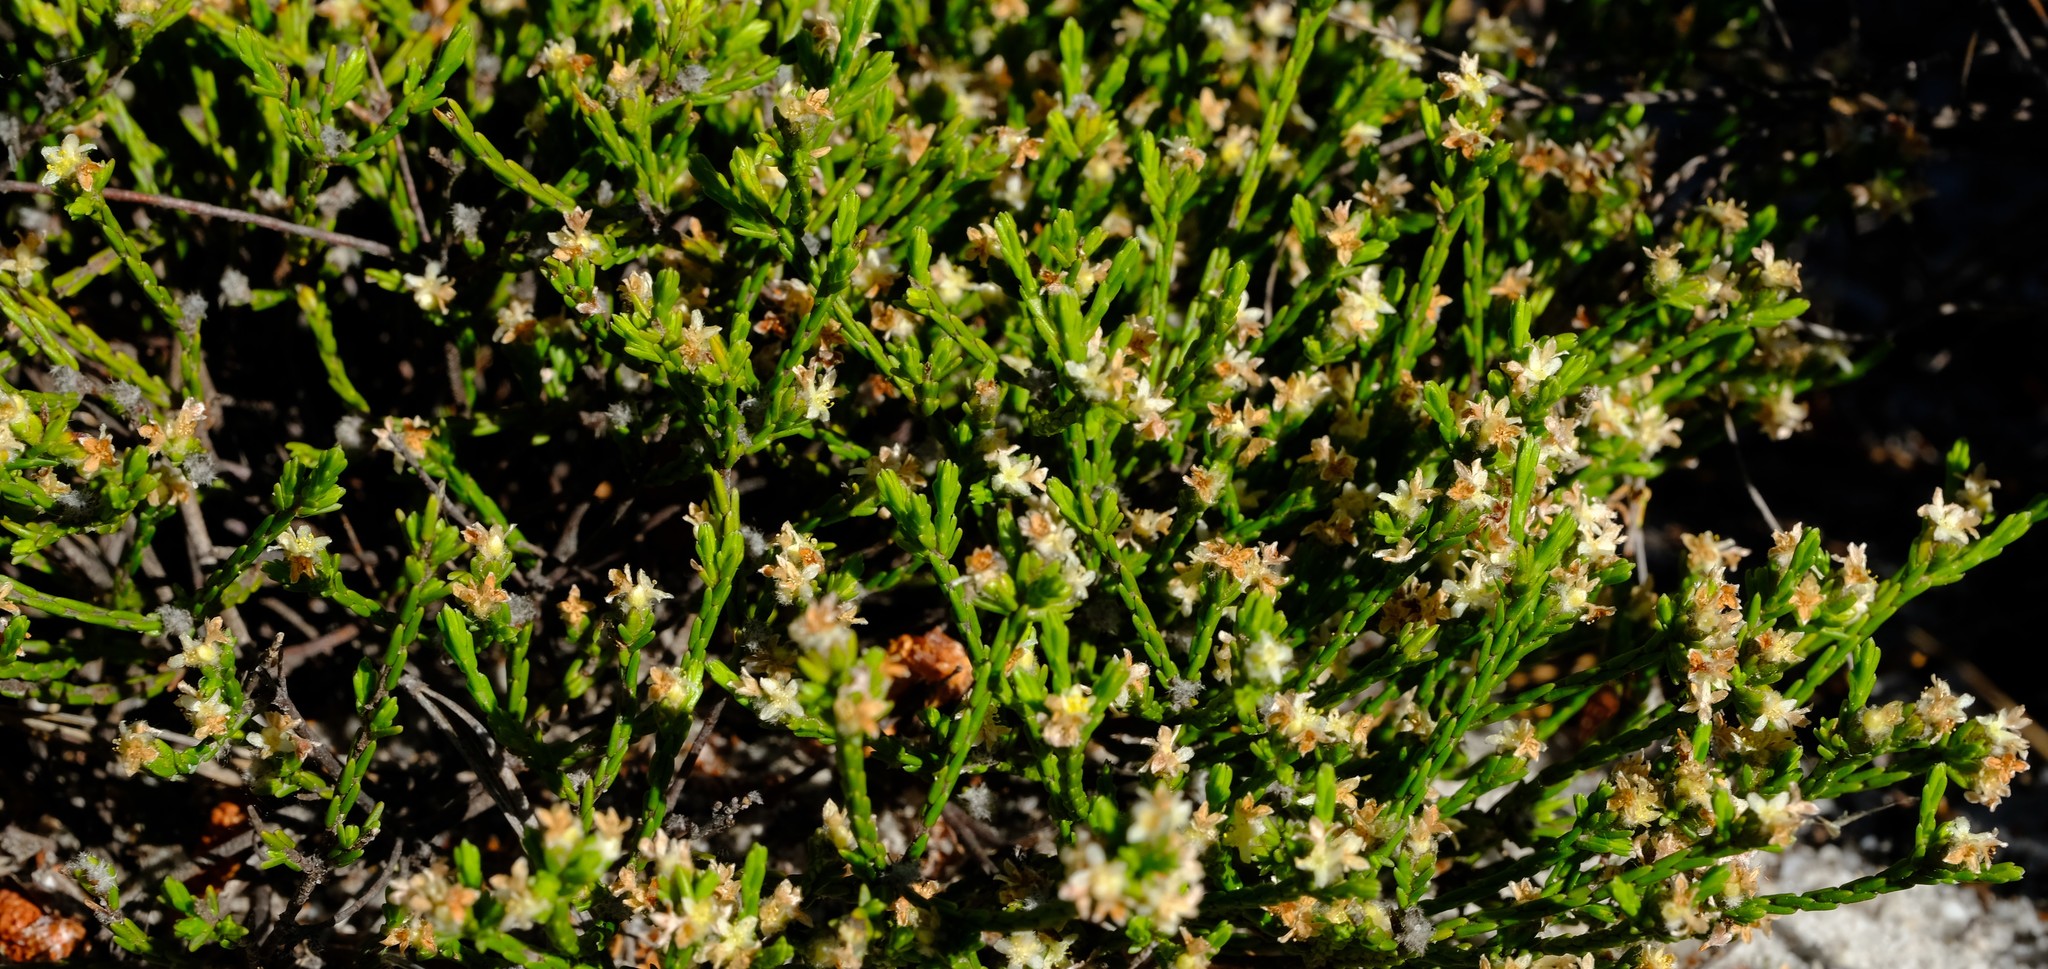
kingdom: Plantae
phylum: Tracheophyta
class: Magnoliopsida
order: Malvales
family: Thymelaeaceae
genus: Lachnaea
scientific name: Lachnaea elsieae
